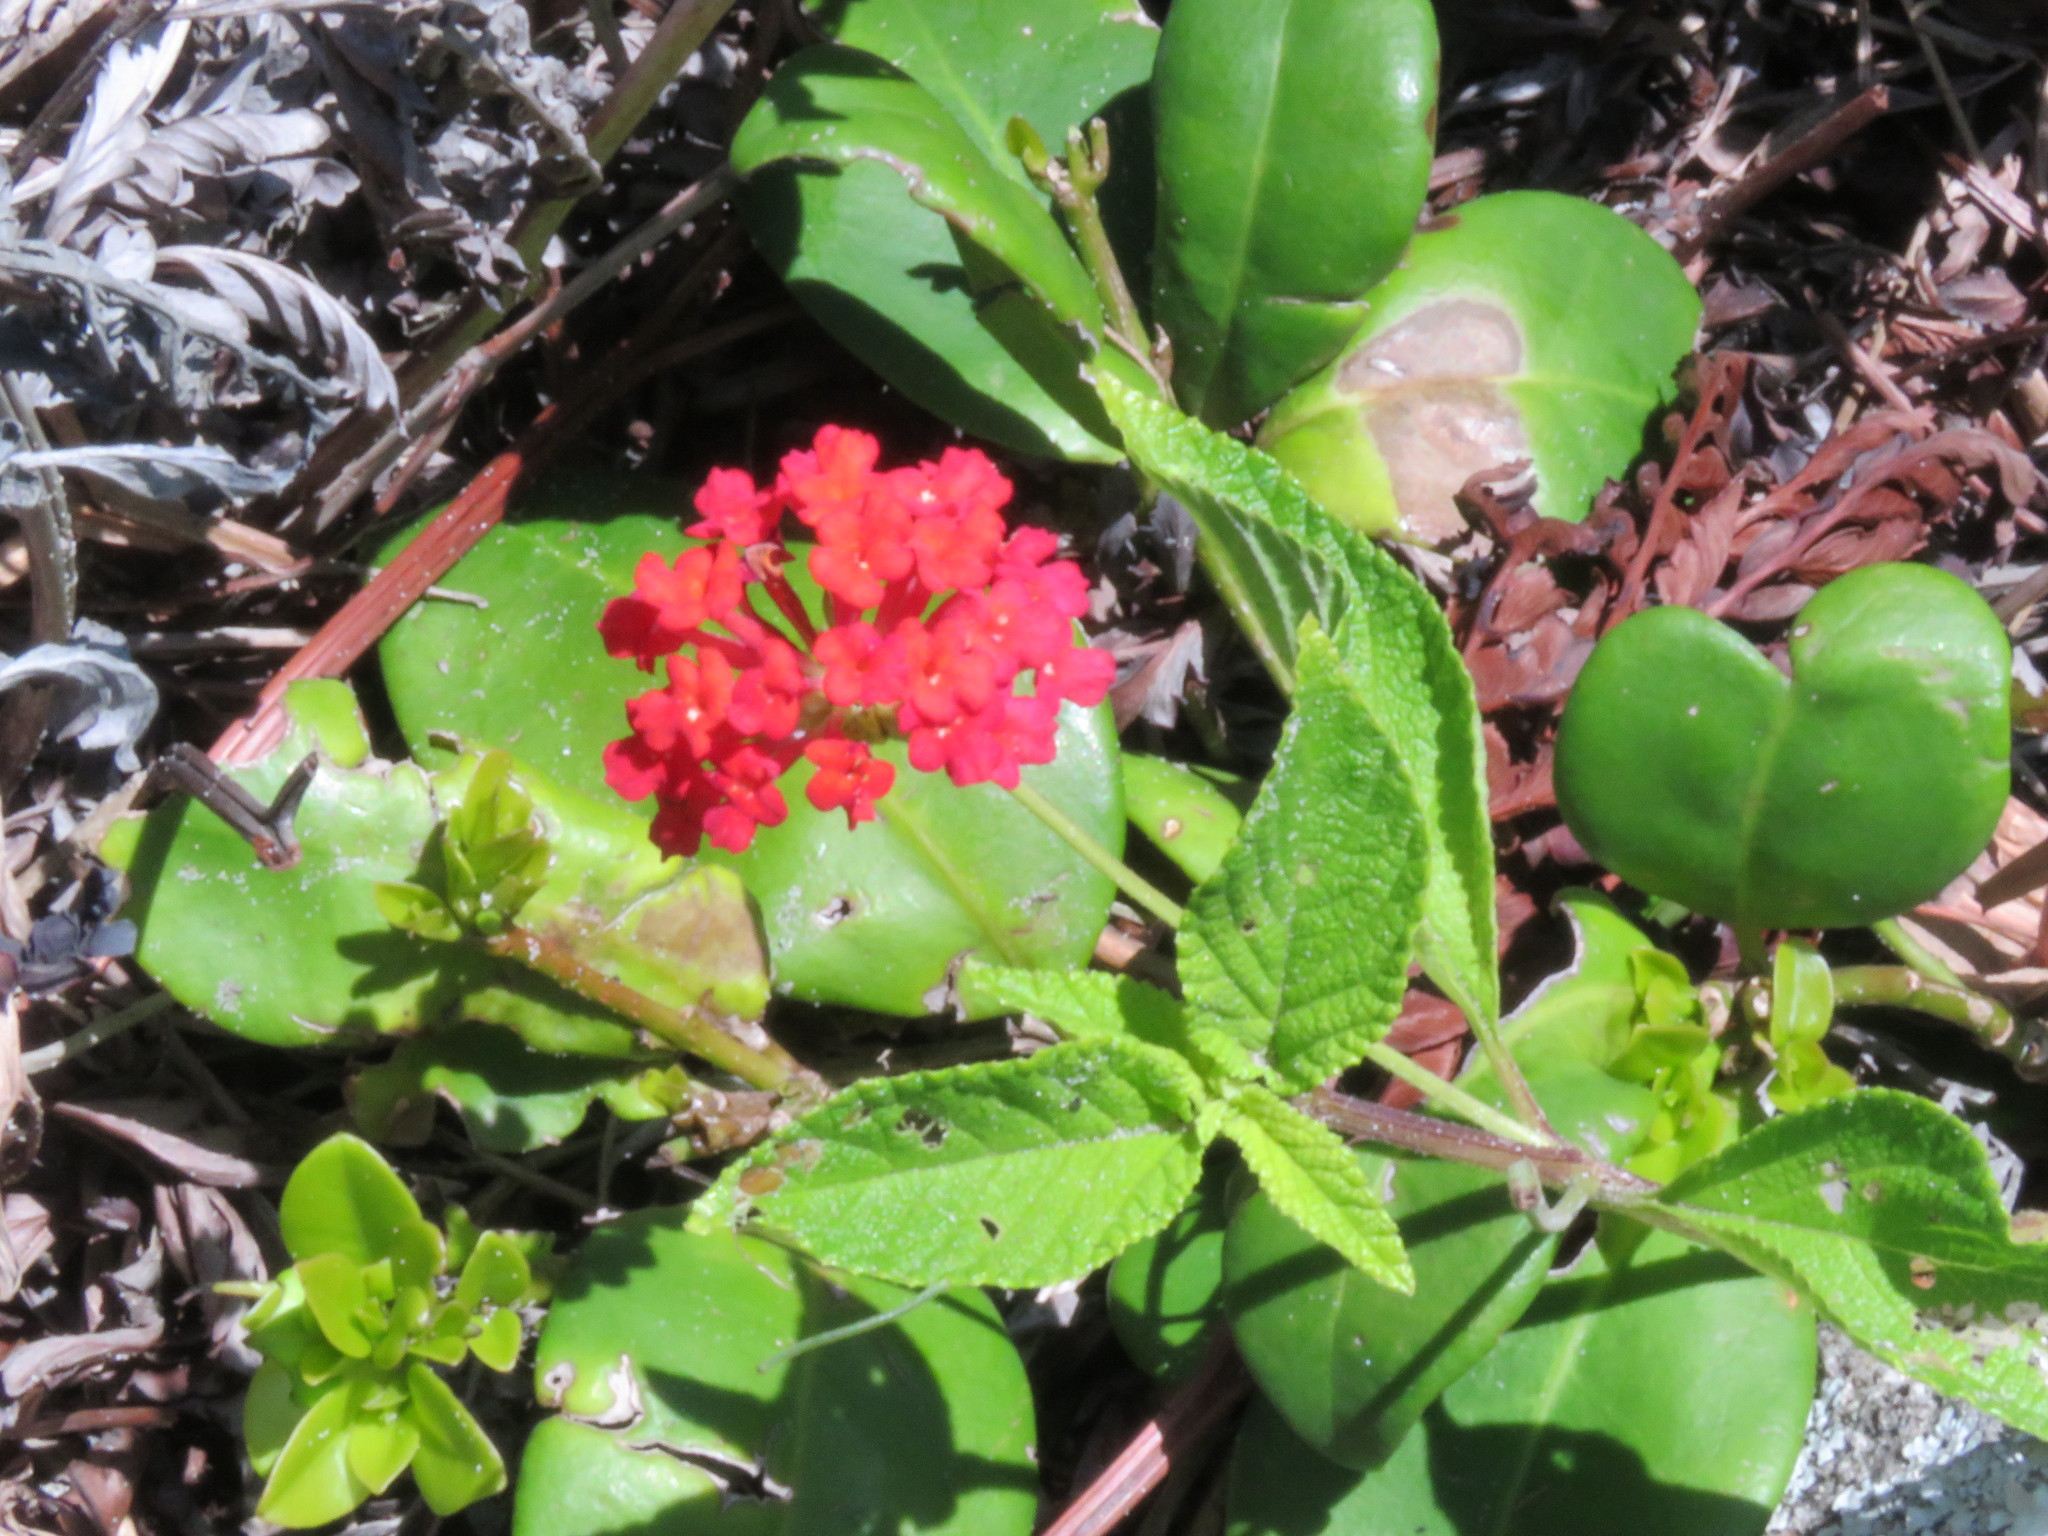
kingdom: Plantae
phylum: Tracheophyta
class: Magnoliopsida
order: Lamiales
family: Verbenaceae
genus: Lantana
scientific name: Lantana camara
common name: Lantana
